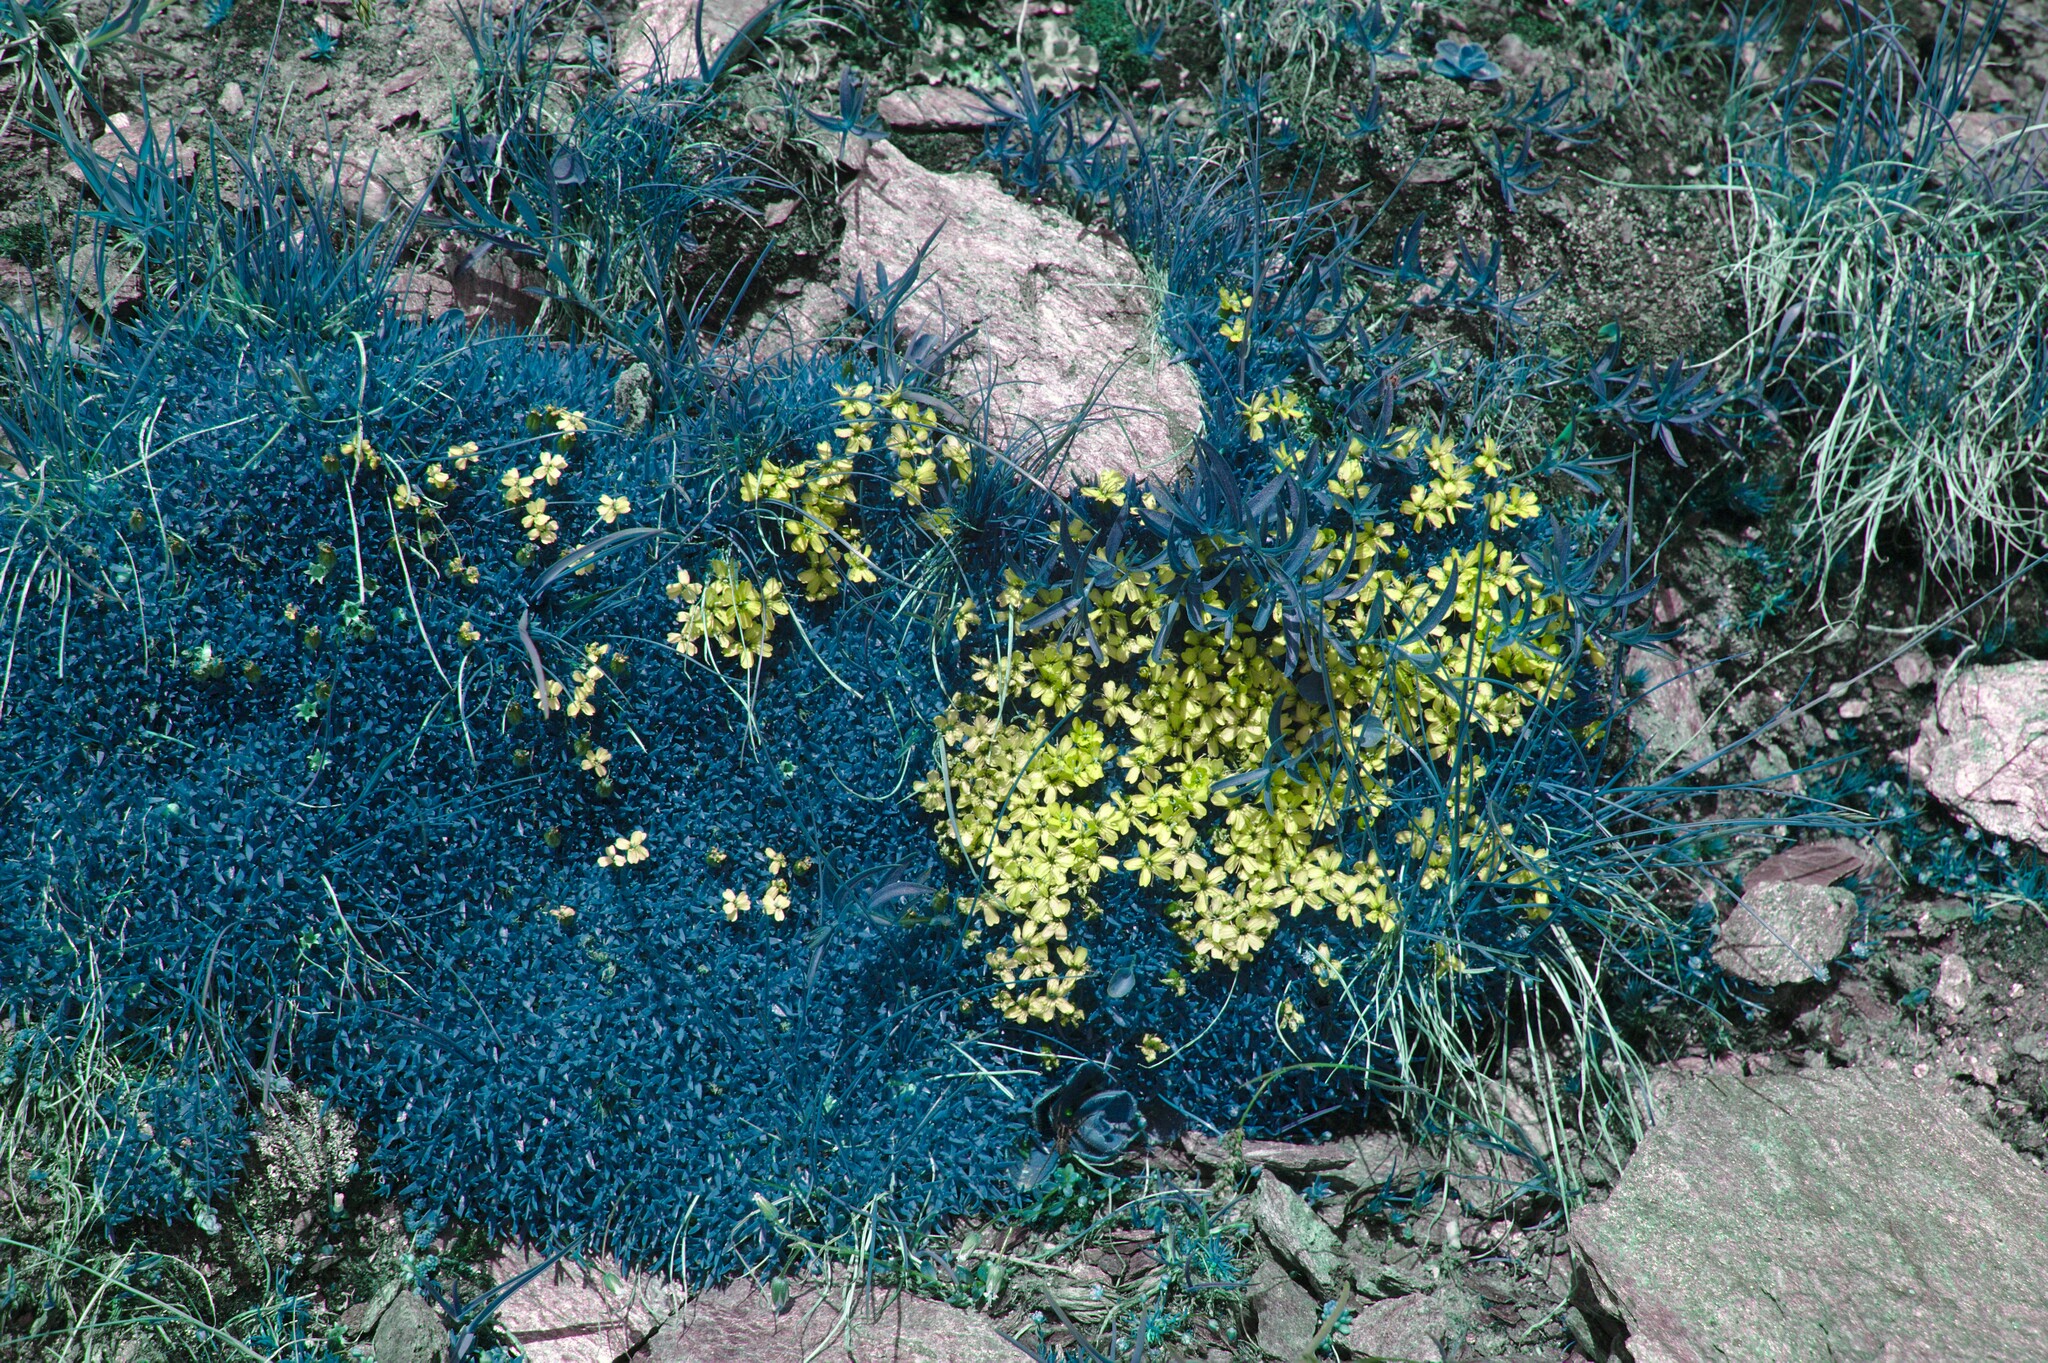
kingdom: Plantae
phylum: Tracheophyta
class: Magnoliopsida
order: Caryophyllales
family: Caryophyllaceae
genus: Silene
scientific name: Silene acaulis
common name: Moss campion
